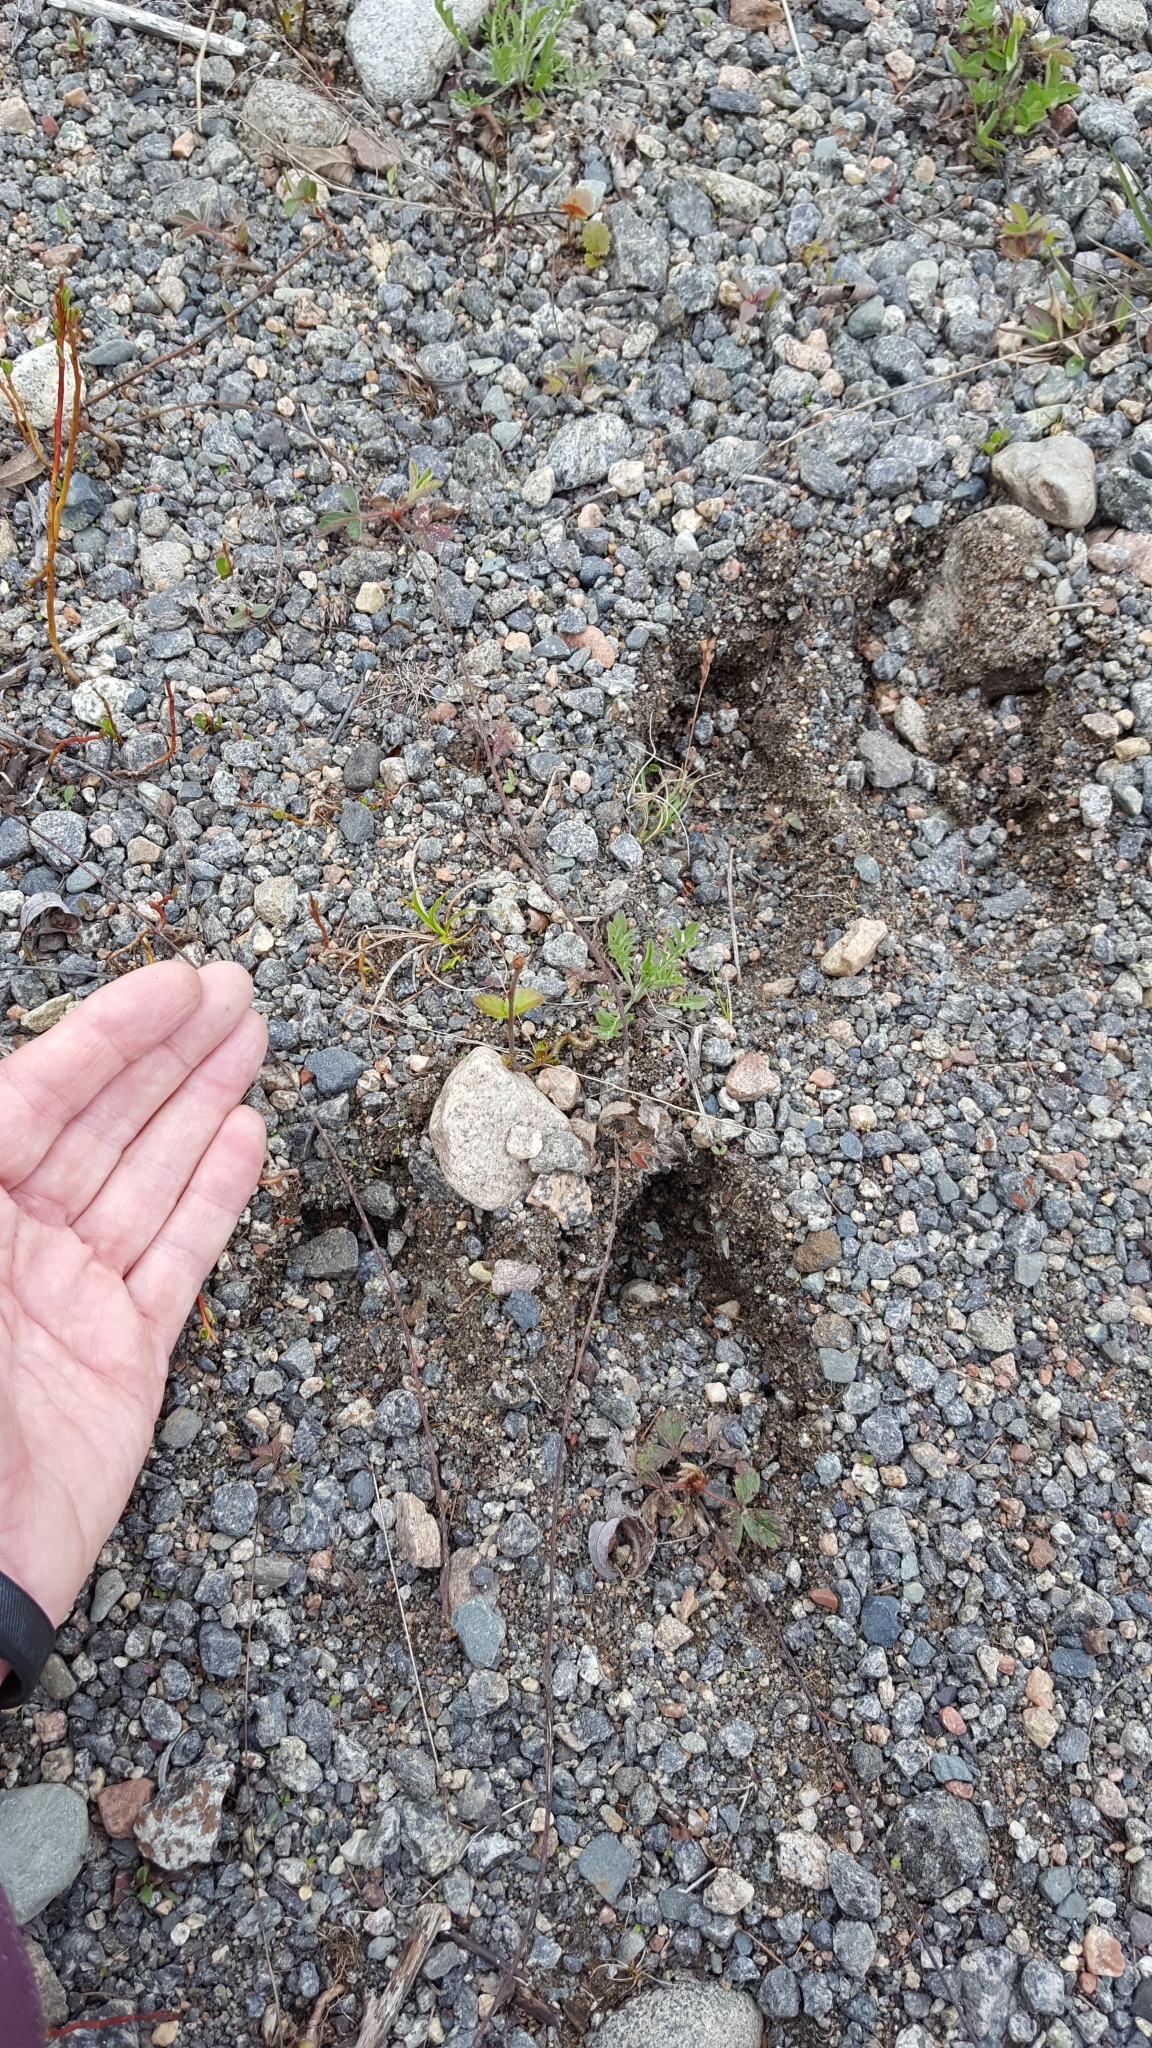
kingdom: Animalia
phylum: Chordata
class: Mammalia
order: Artiodactyla
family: Cervidae
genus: Alces
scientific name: Alces alces
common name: Moose
